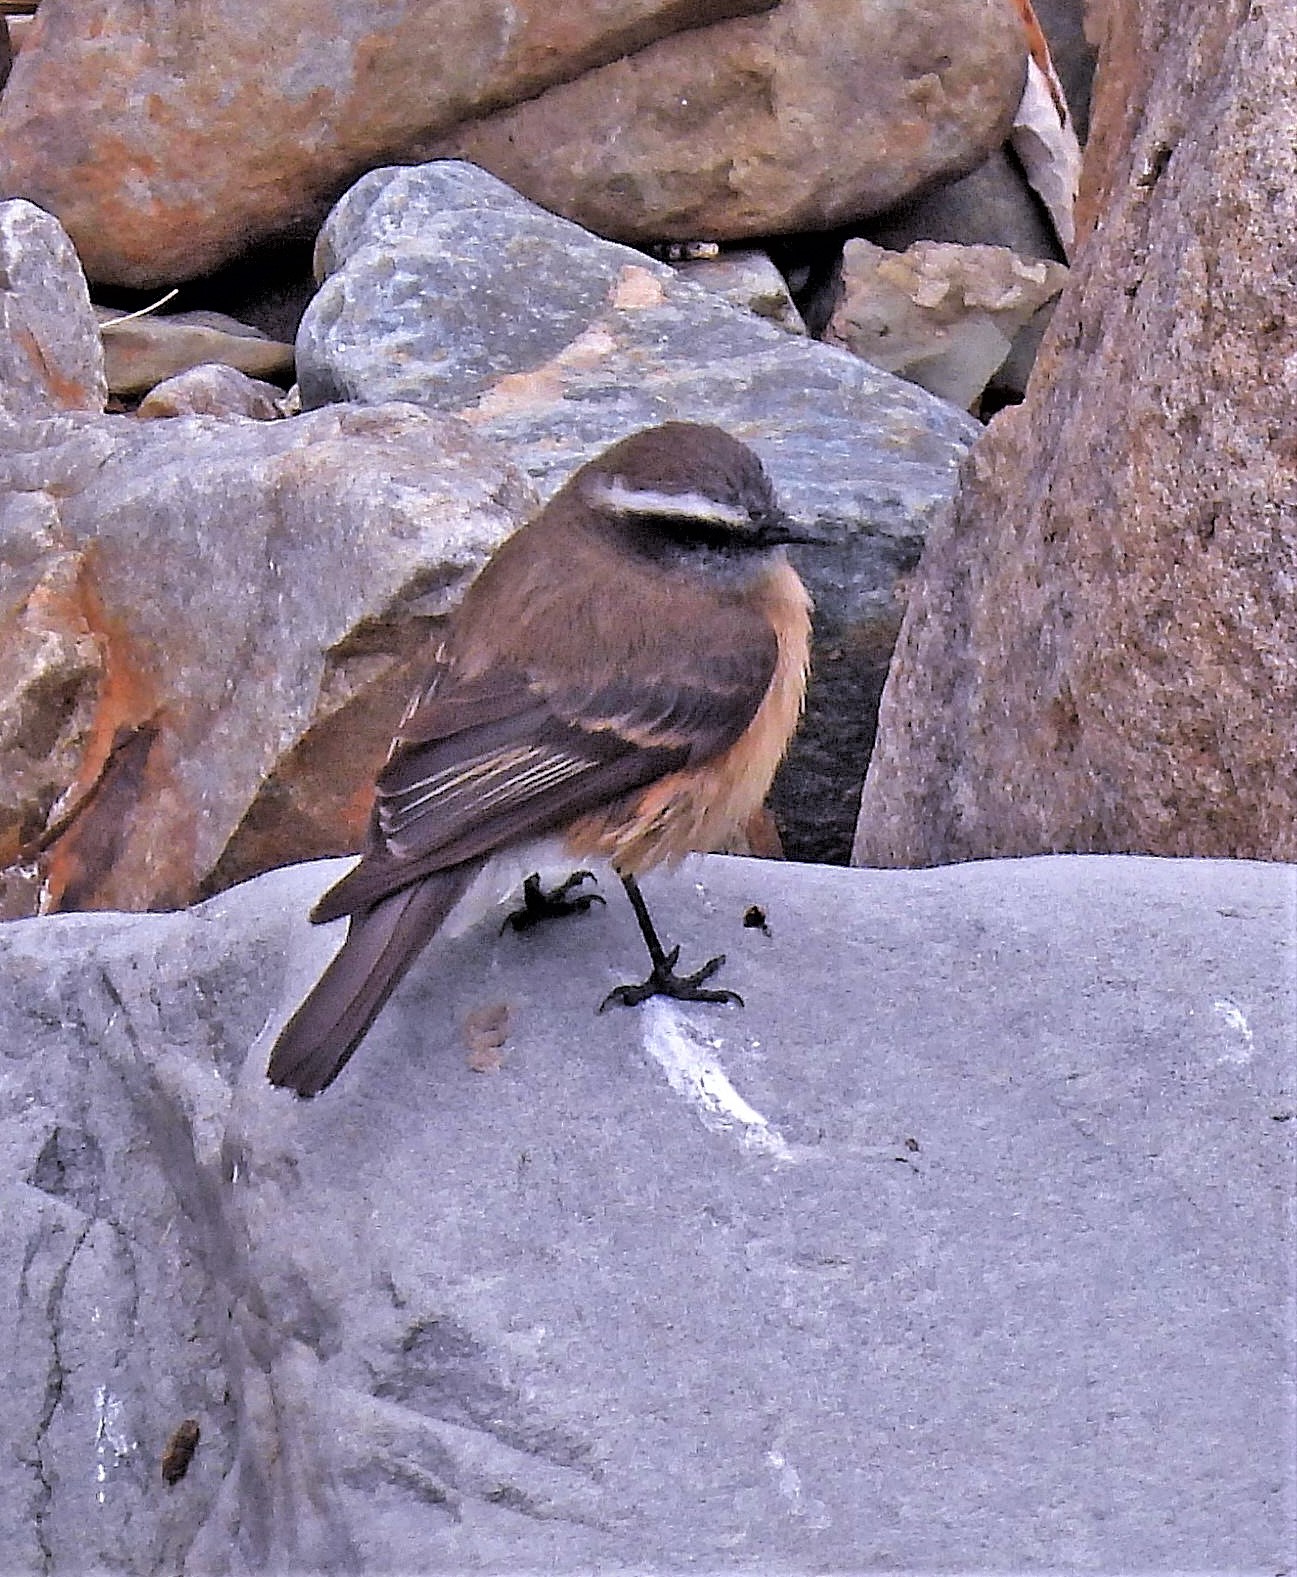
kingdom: Animalia
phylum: Chordata
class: Aves
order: Passeriformes
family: Tyrannidae
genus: Ochthoeca
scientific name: Ochthoeca oenanthoides
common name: D'orbigny's chat-tyrant
